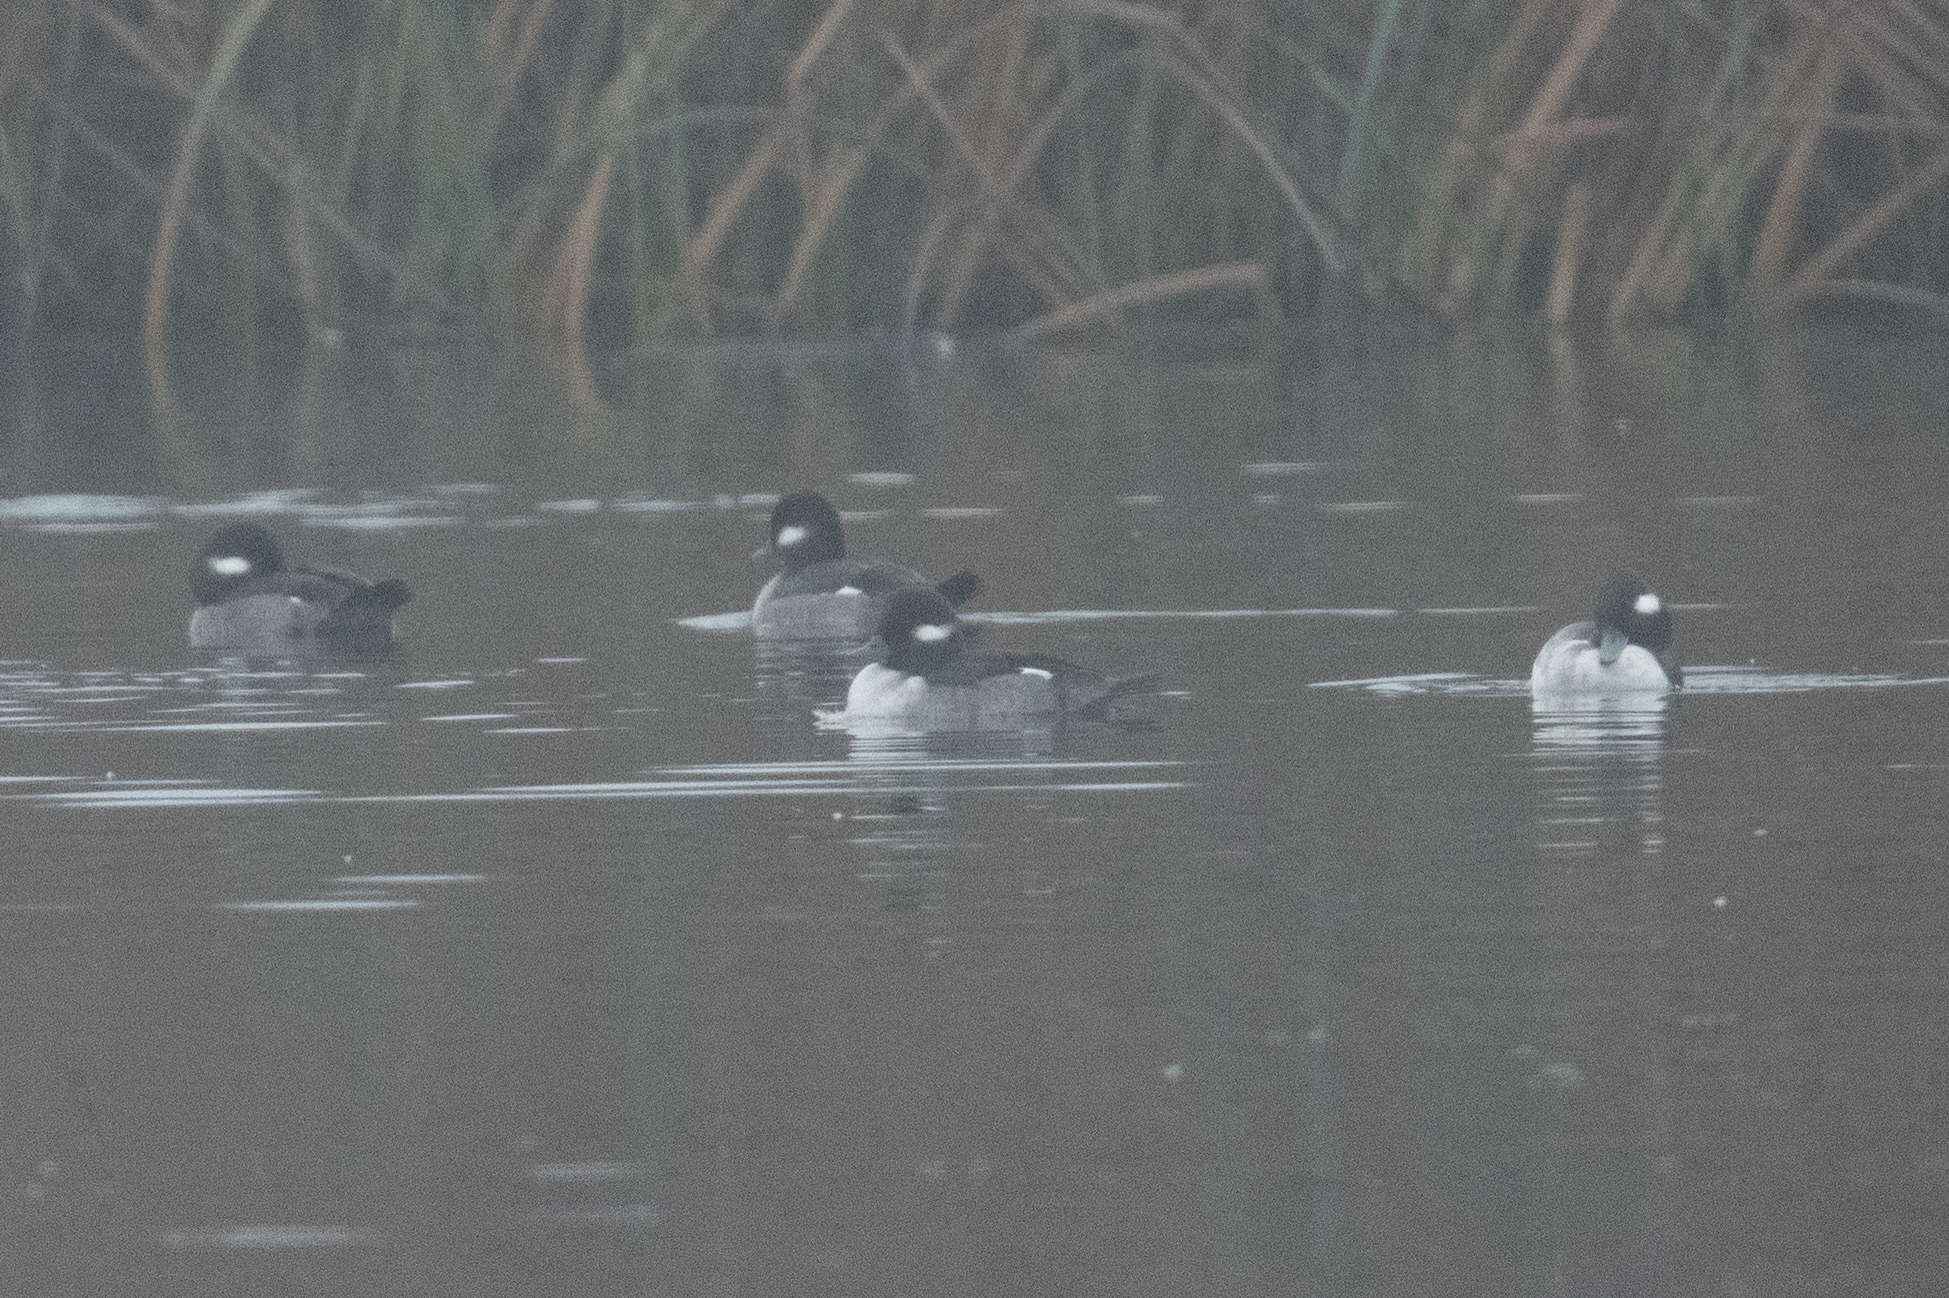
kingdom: Animalia
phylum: Chordata
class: Aves
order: Anseriformes
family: Anatidae
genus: Bucephala
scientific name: Bucephala albeola
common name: Bufflehead
